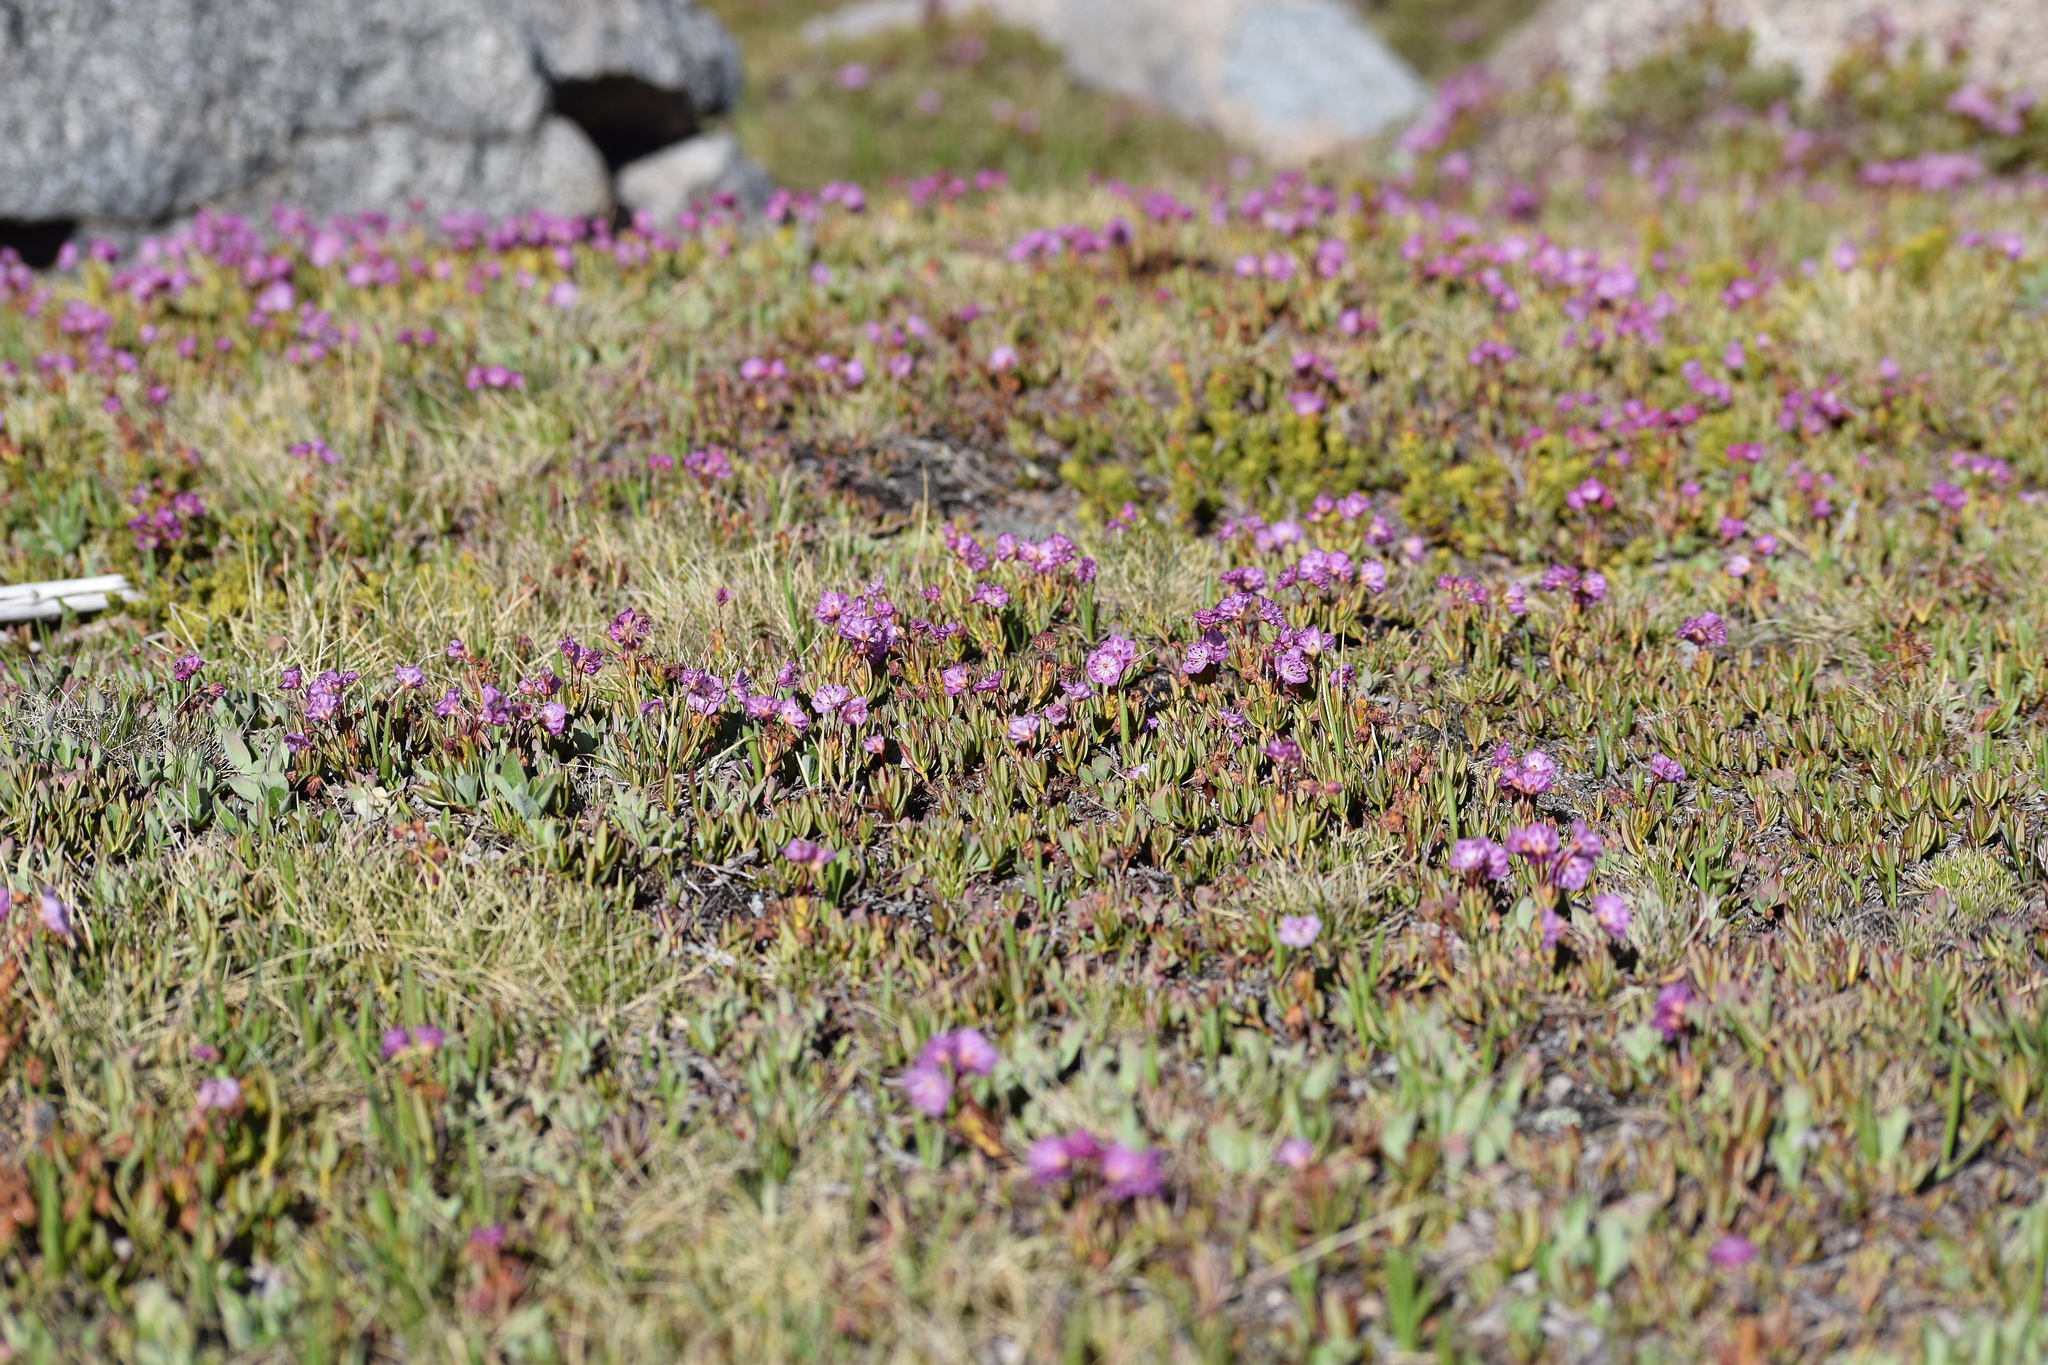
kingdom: Plantae
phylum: Tracheophyta
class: Magnoliopsida
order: Ericales
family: Ericaceae
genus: Kalmia
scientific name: Kalmia microphylla
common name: Alpine bog laurel
